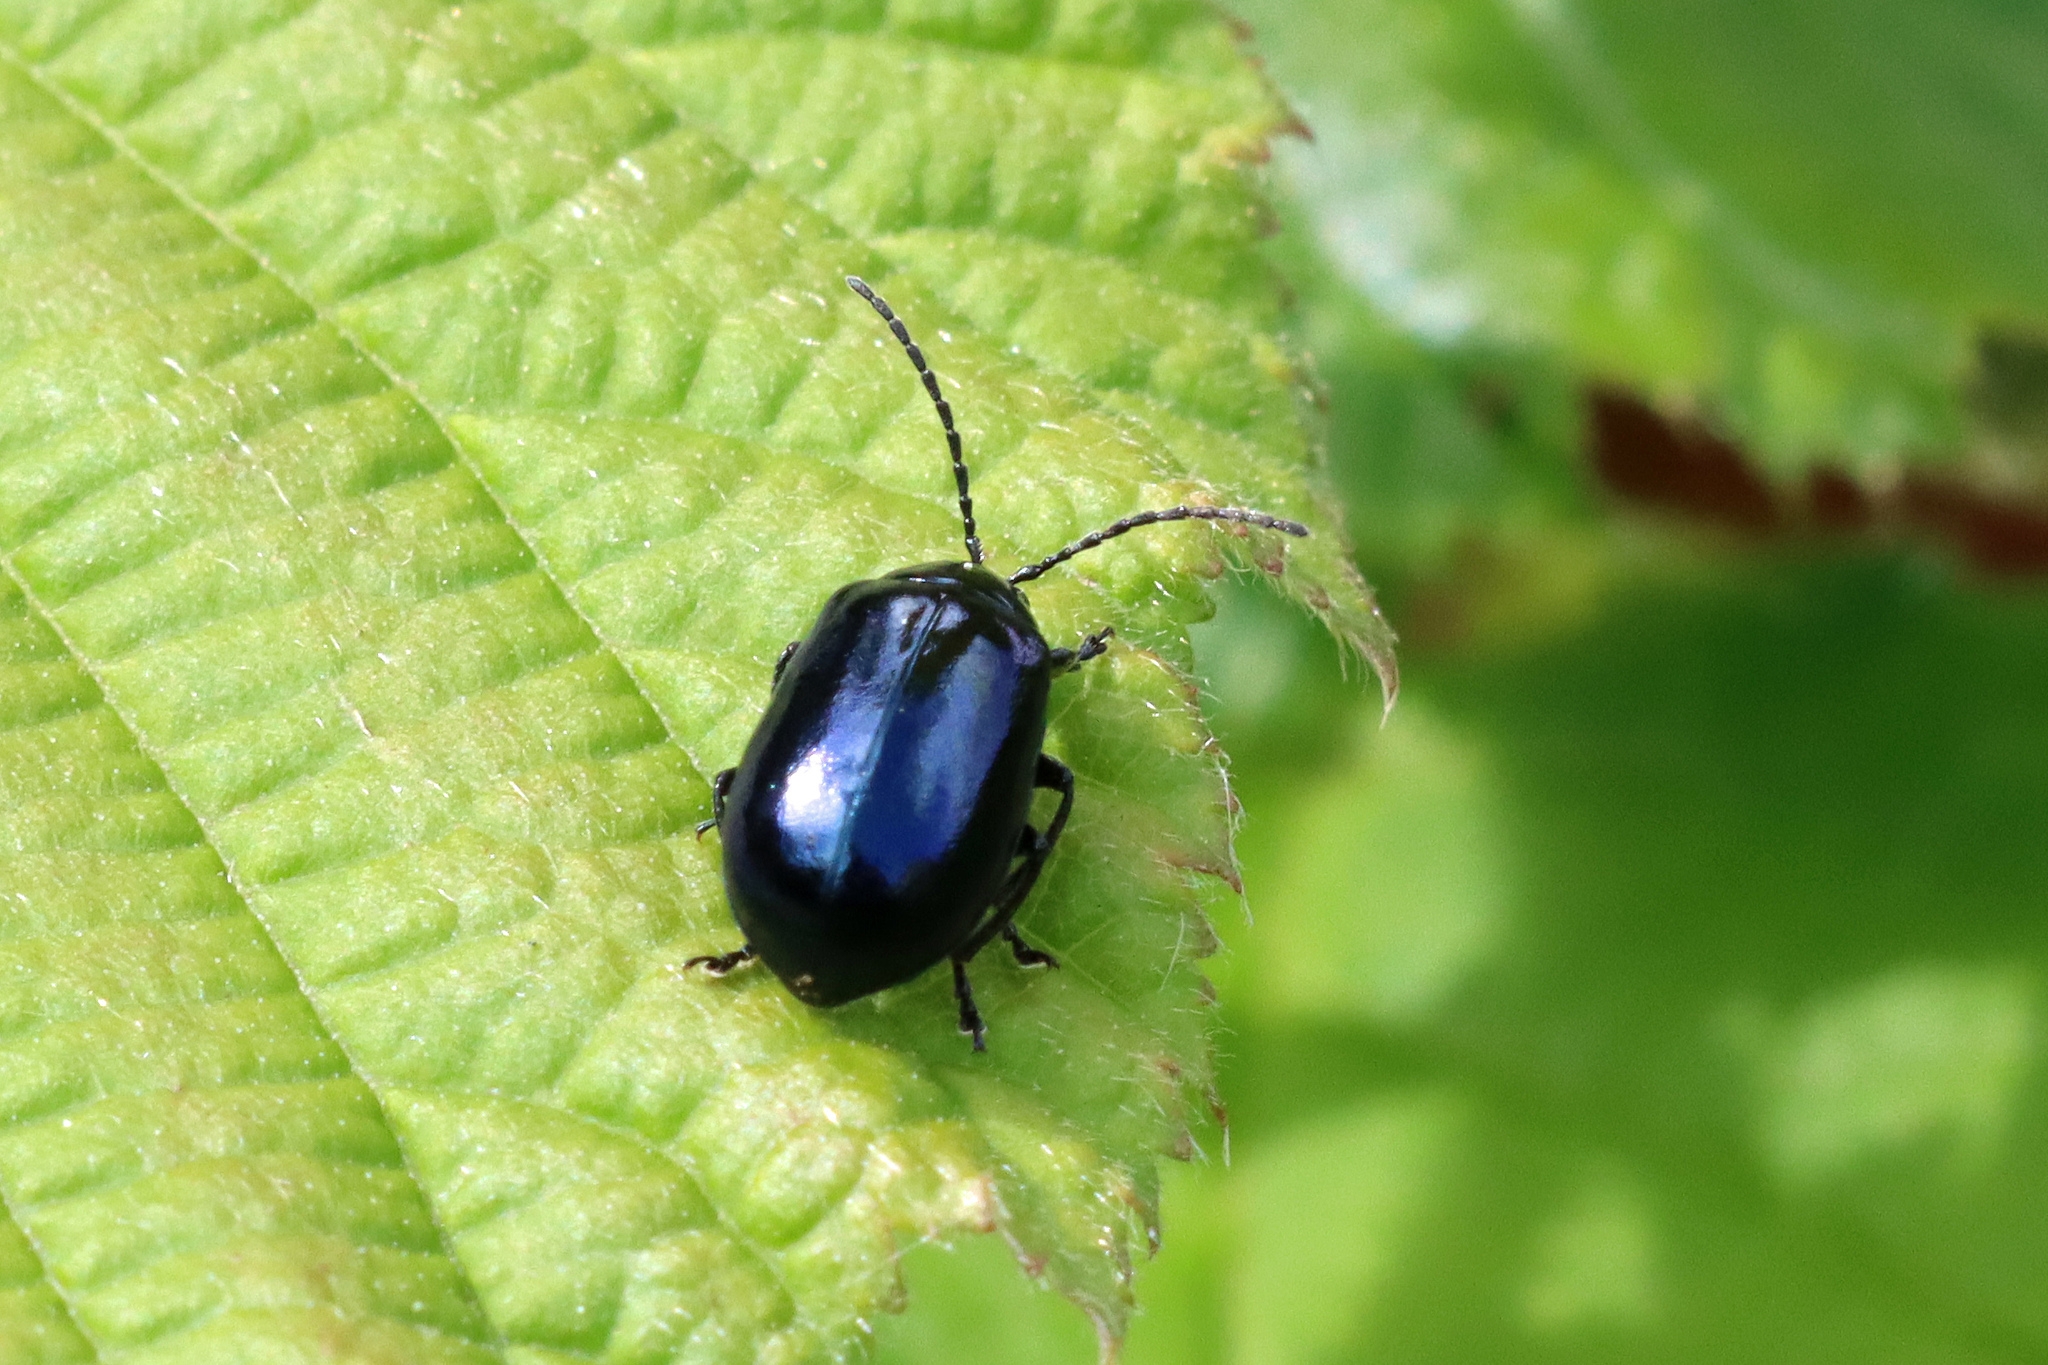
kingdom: Animalia
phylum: Arthropoda
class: Insecta
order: Coleoptera
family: Chrysomelidae
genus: Agelastica
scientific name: Agelastica alni
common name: Alder leaf beetle
